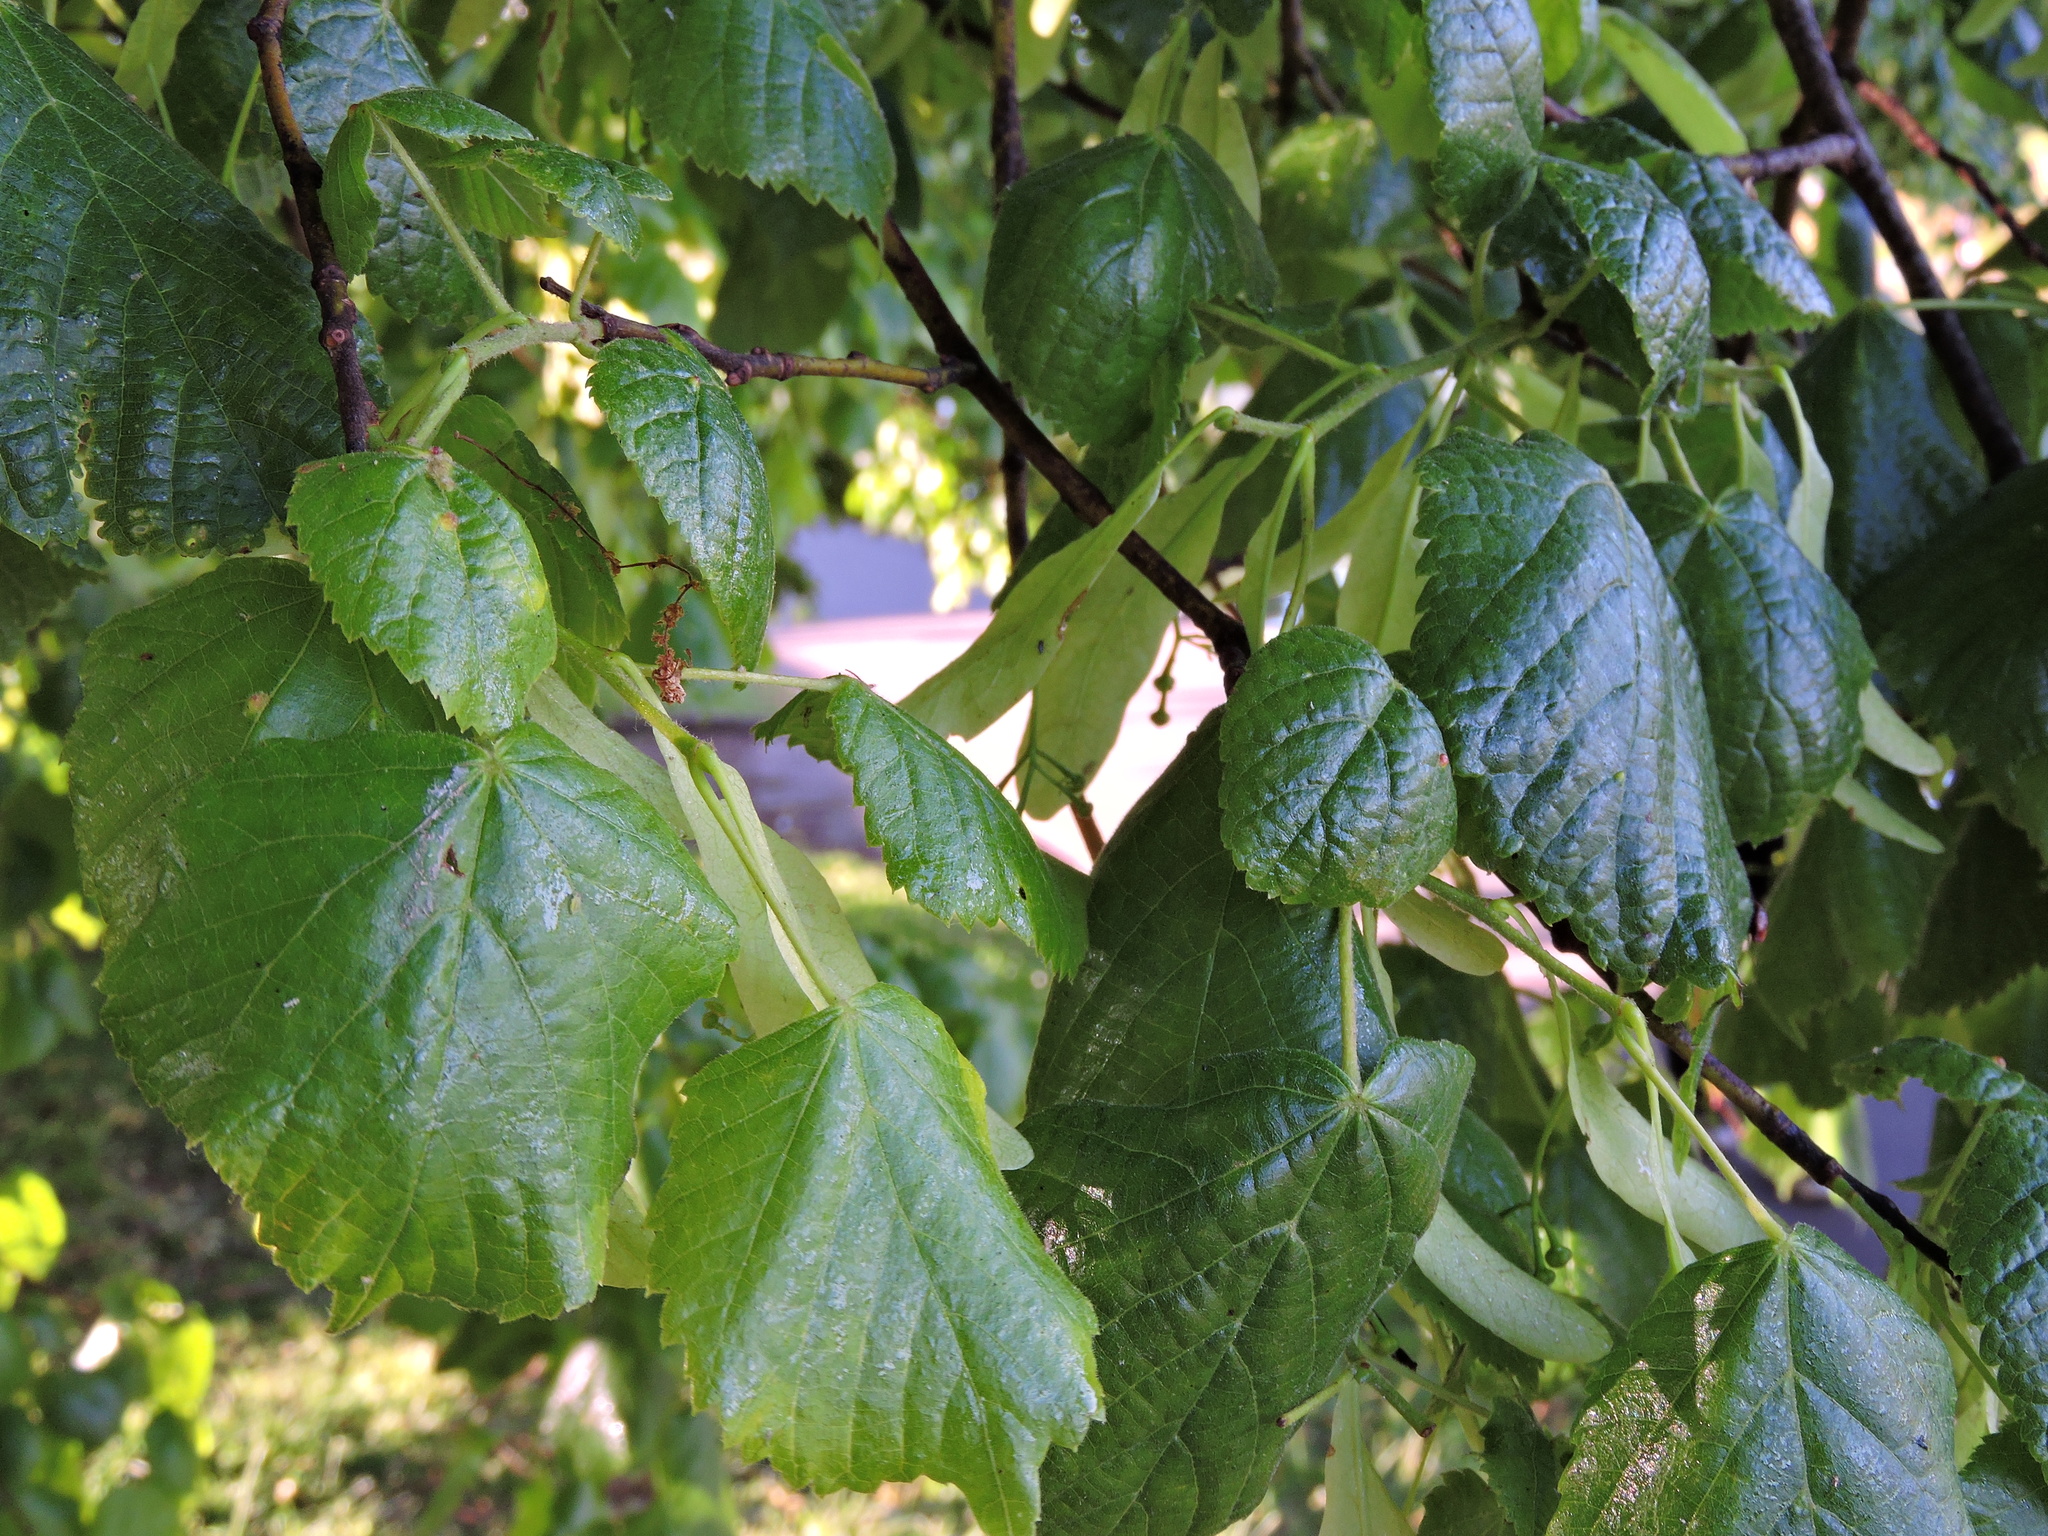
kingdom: Plantae
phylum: Tracheophyta
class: Magnoliopsida
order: Malvales
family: Malvaceae
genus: Tilia
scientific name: Tilia europaea
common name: European linden
